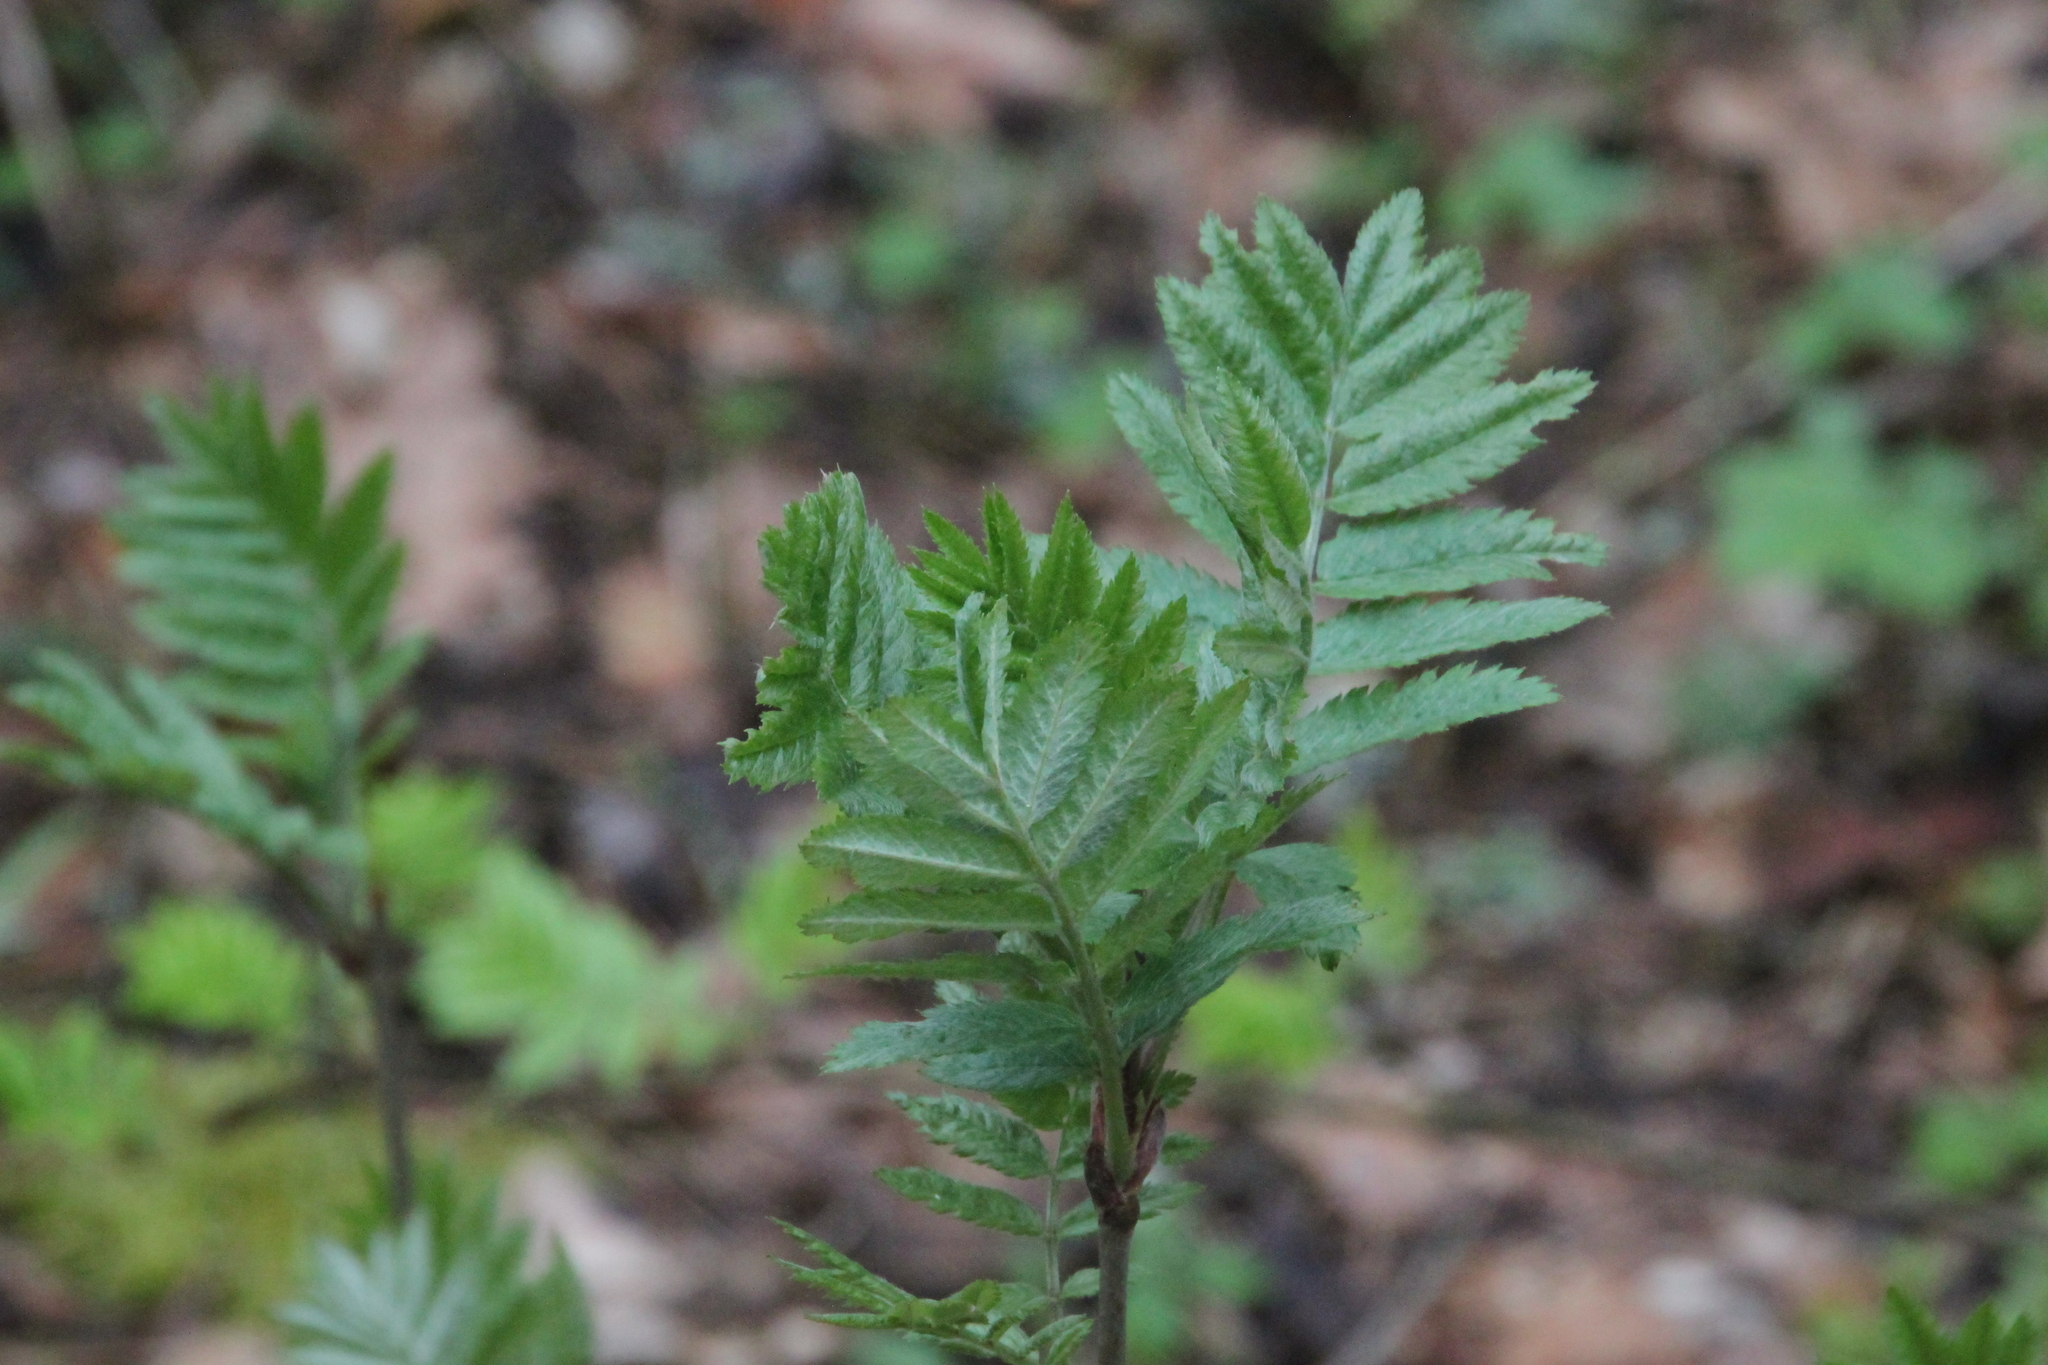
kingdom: Plantae
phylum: Tracheophyta
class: Magnoliopsida
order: Rosales
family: Rosaceae
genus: Sorbus
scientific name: Sorbus aucuparia
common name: Rowan
